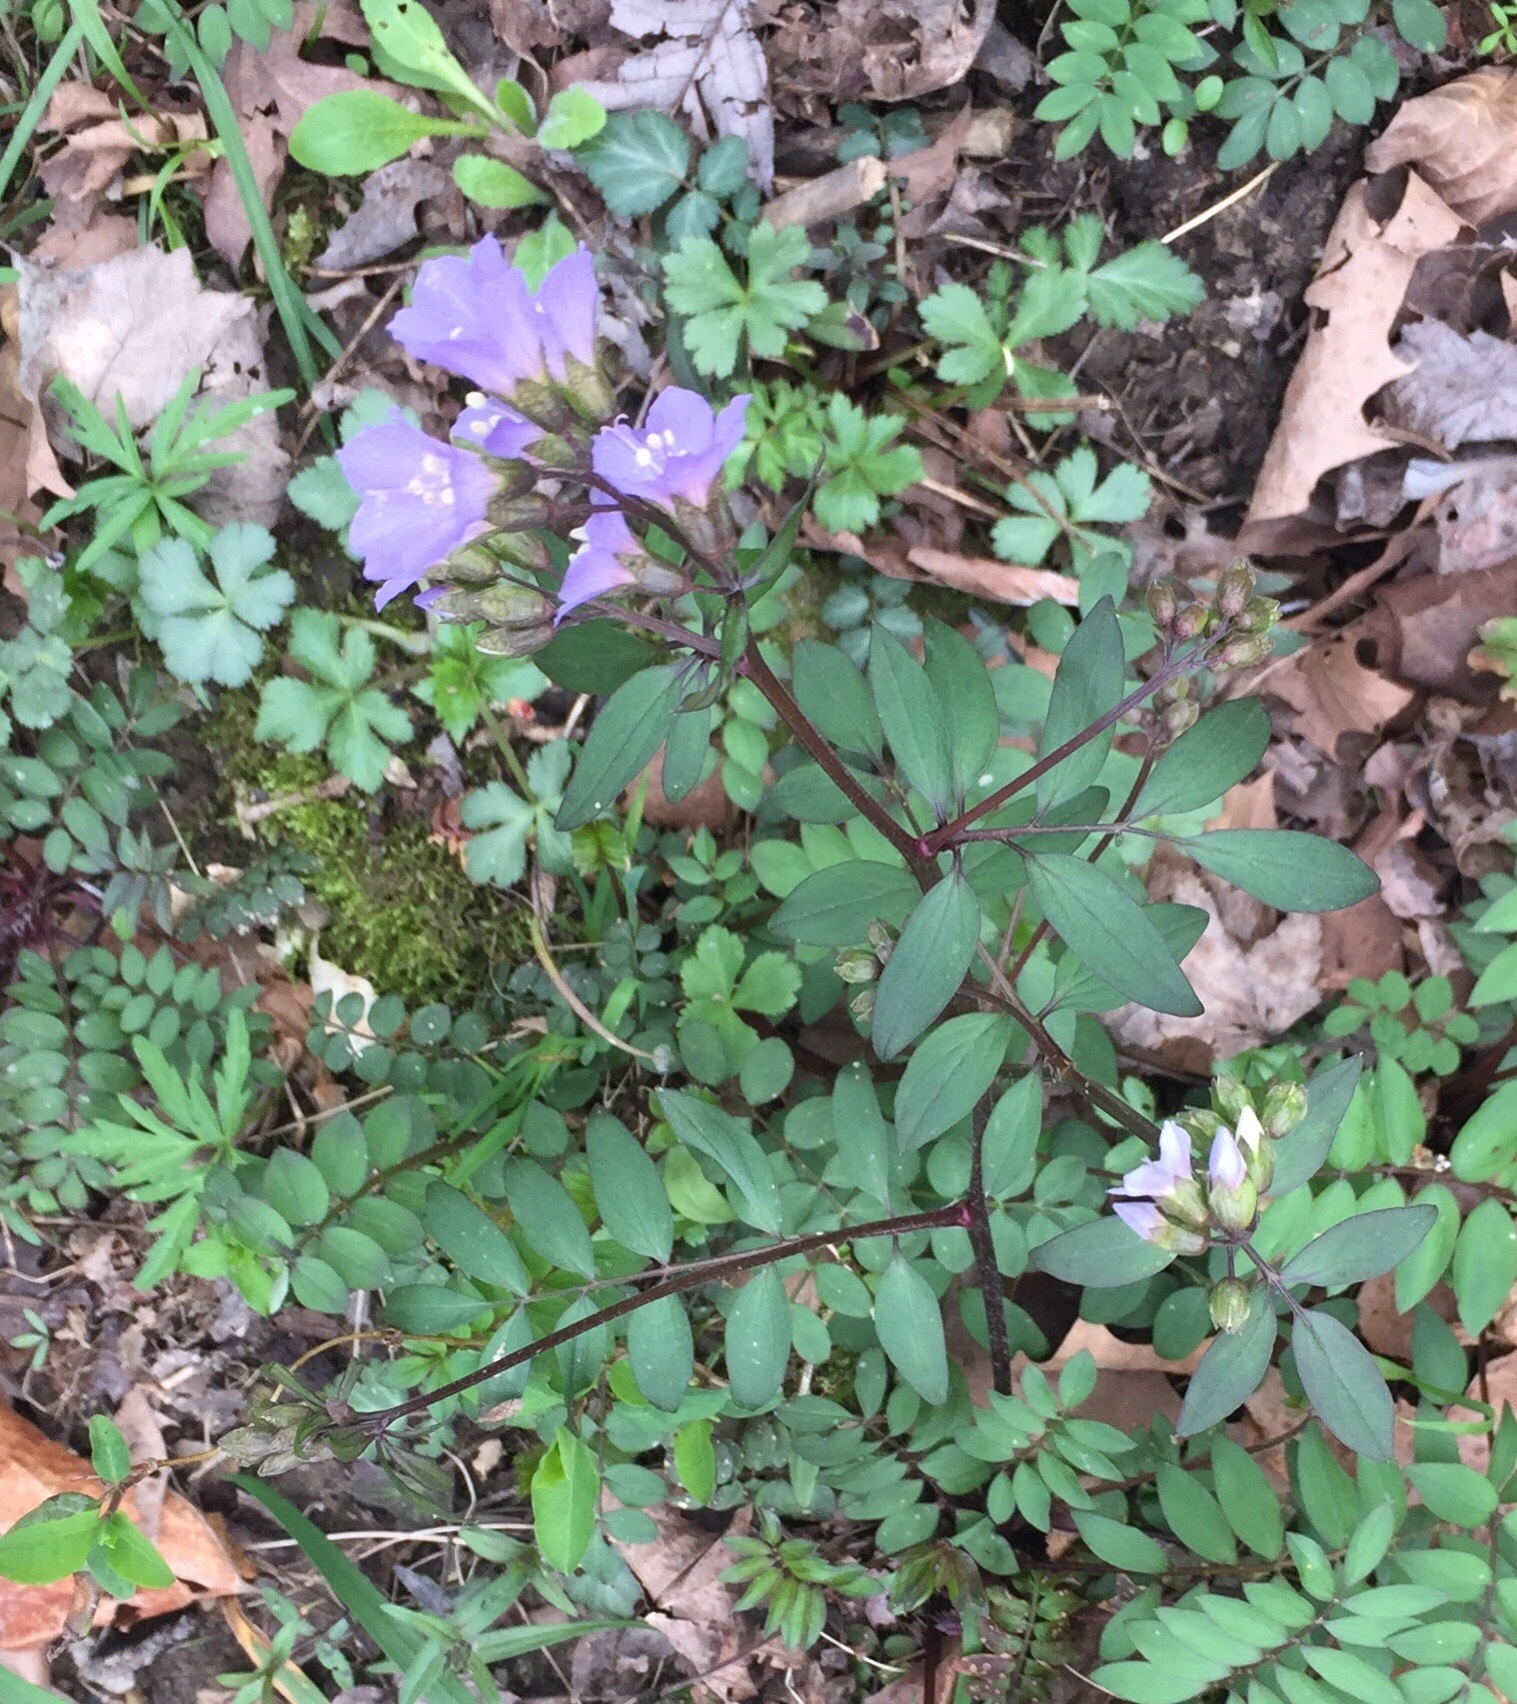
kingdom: Plantae
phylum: Tracheophyta
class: Magnoliopsida
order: Ericales
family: Polemoniaceae
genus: Polemonium
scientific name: Polemonium reptans
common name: Creeping jacob's-ladder
